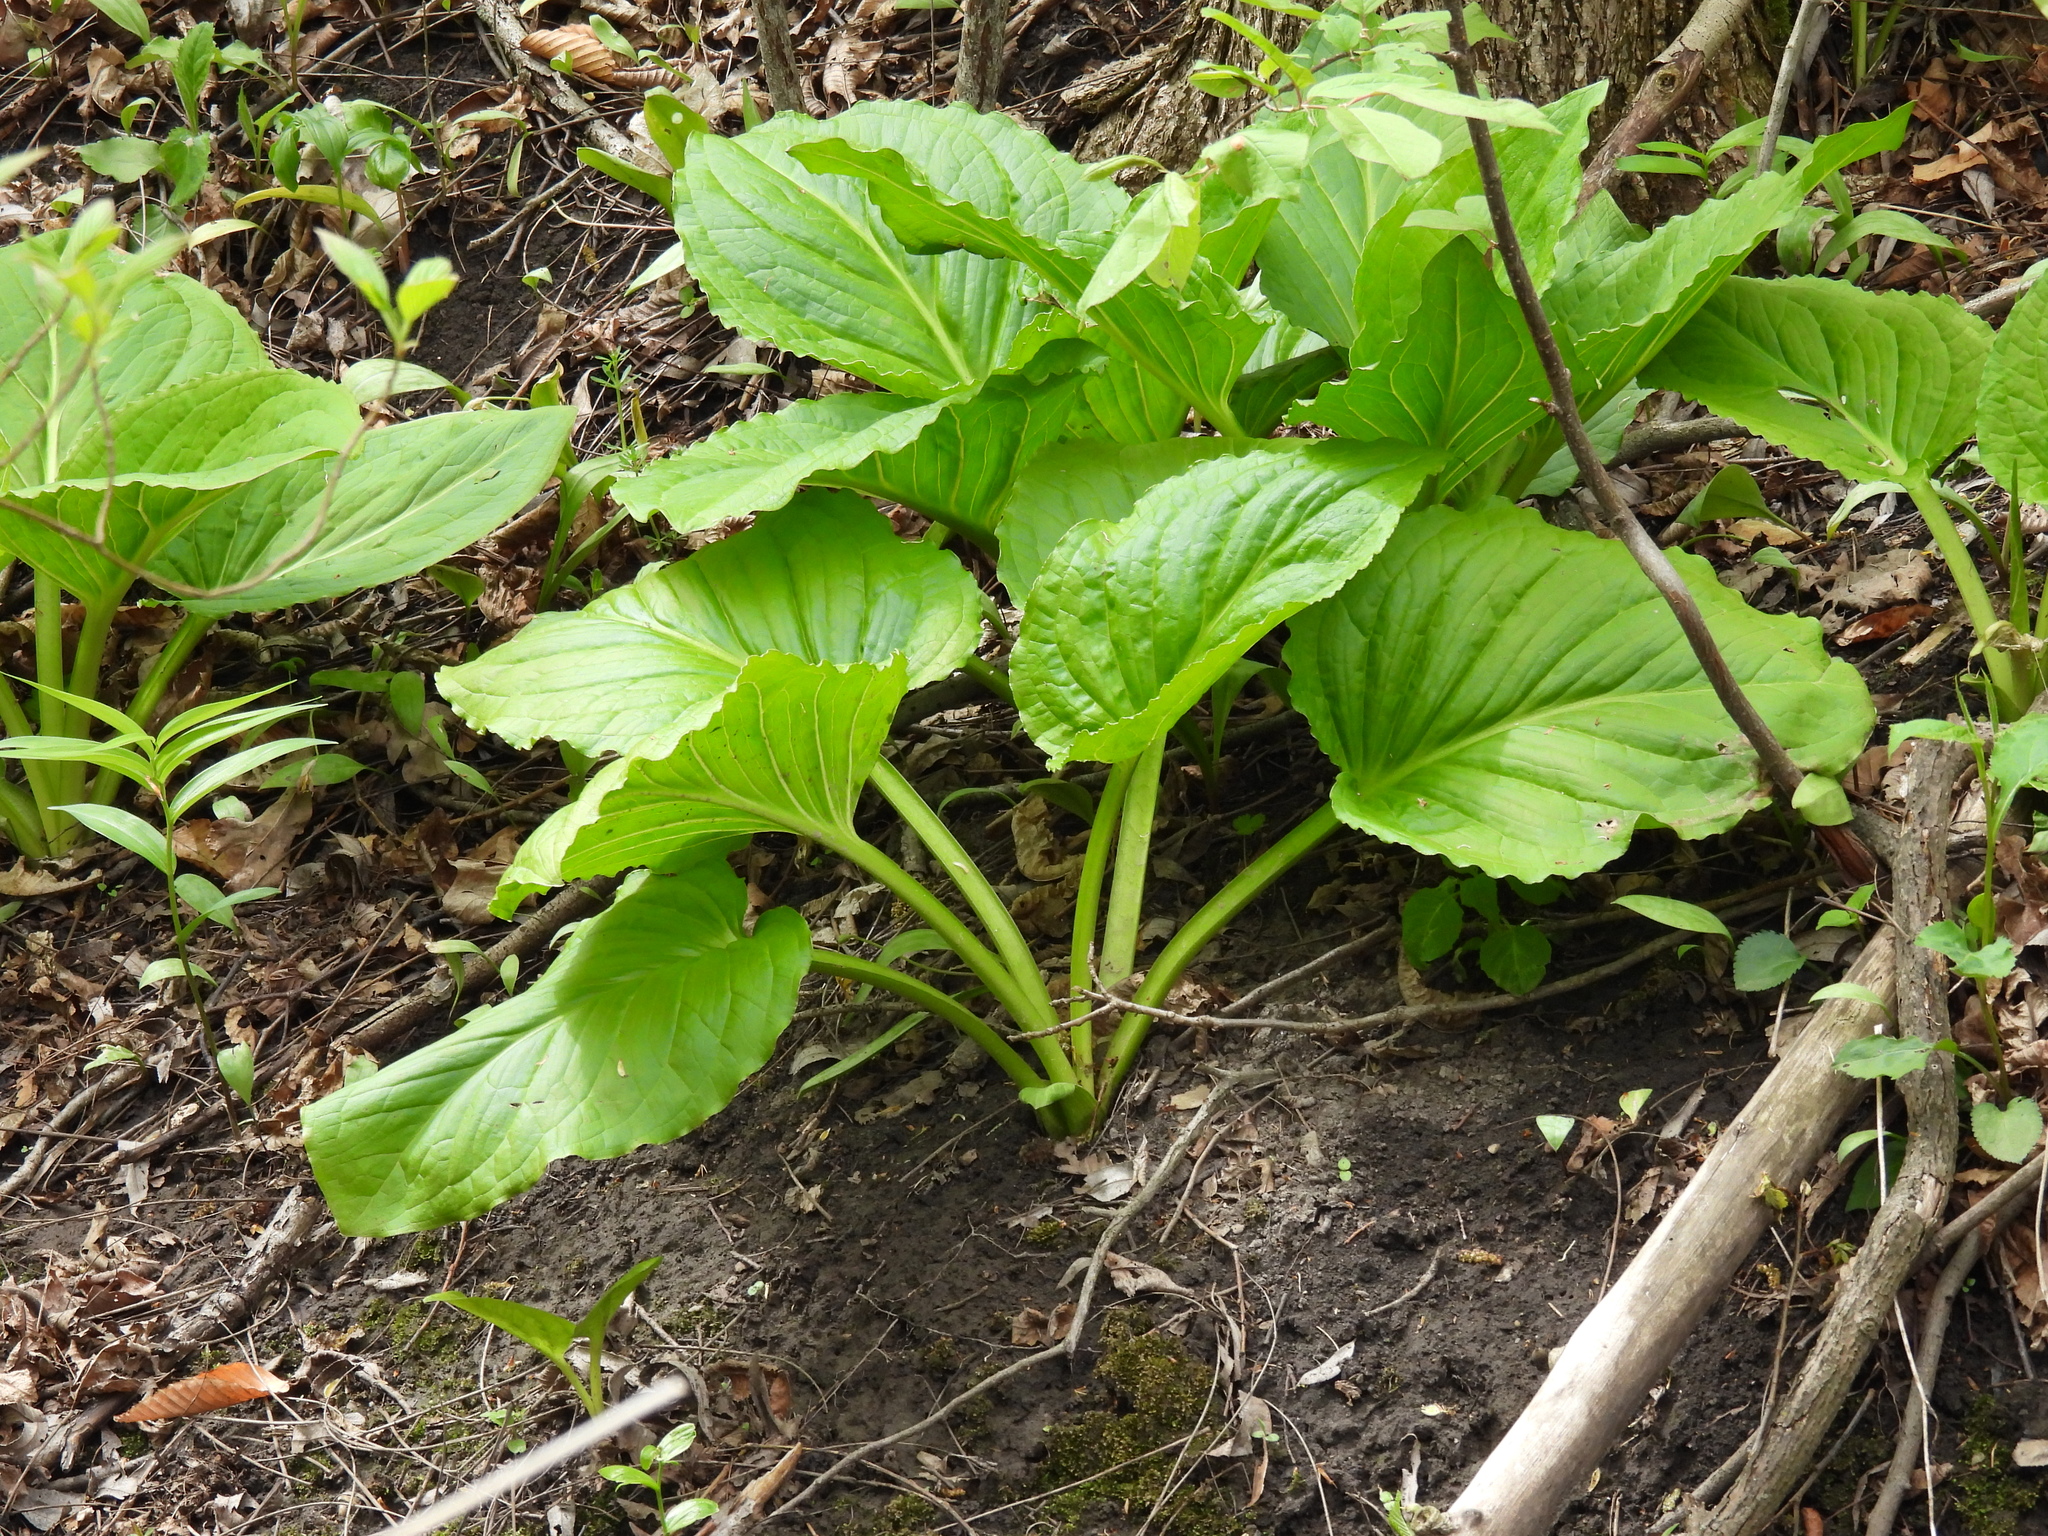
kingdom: Plantae
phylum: Tracheophyta
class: Liliopsida
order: Alismatales
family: Araceae
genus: Symplocarpus
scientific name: Symplocarpus foetidus
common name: Eastern skunk cabbage
